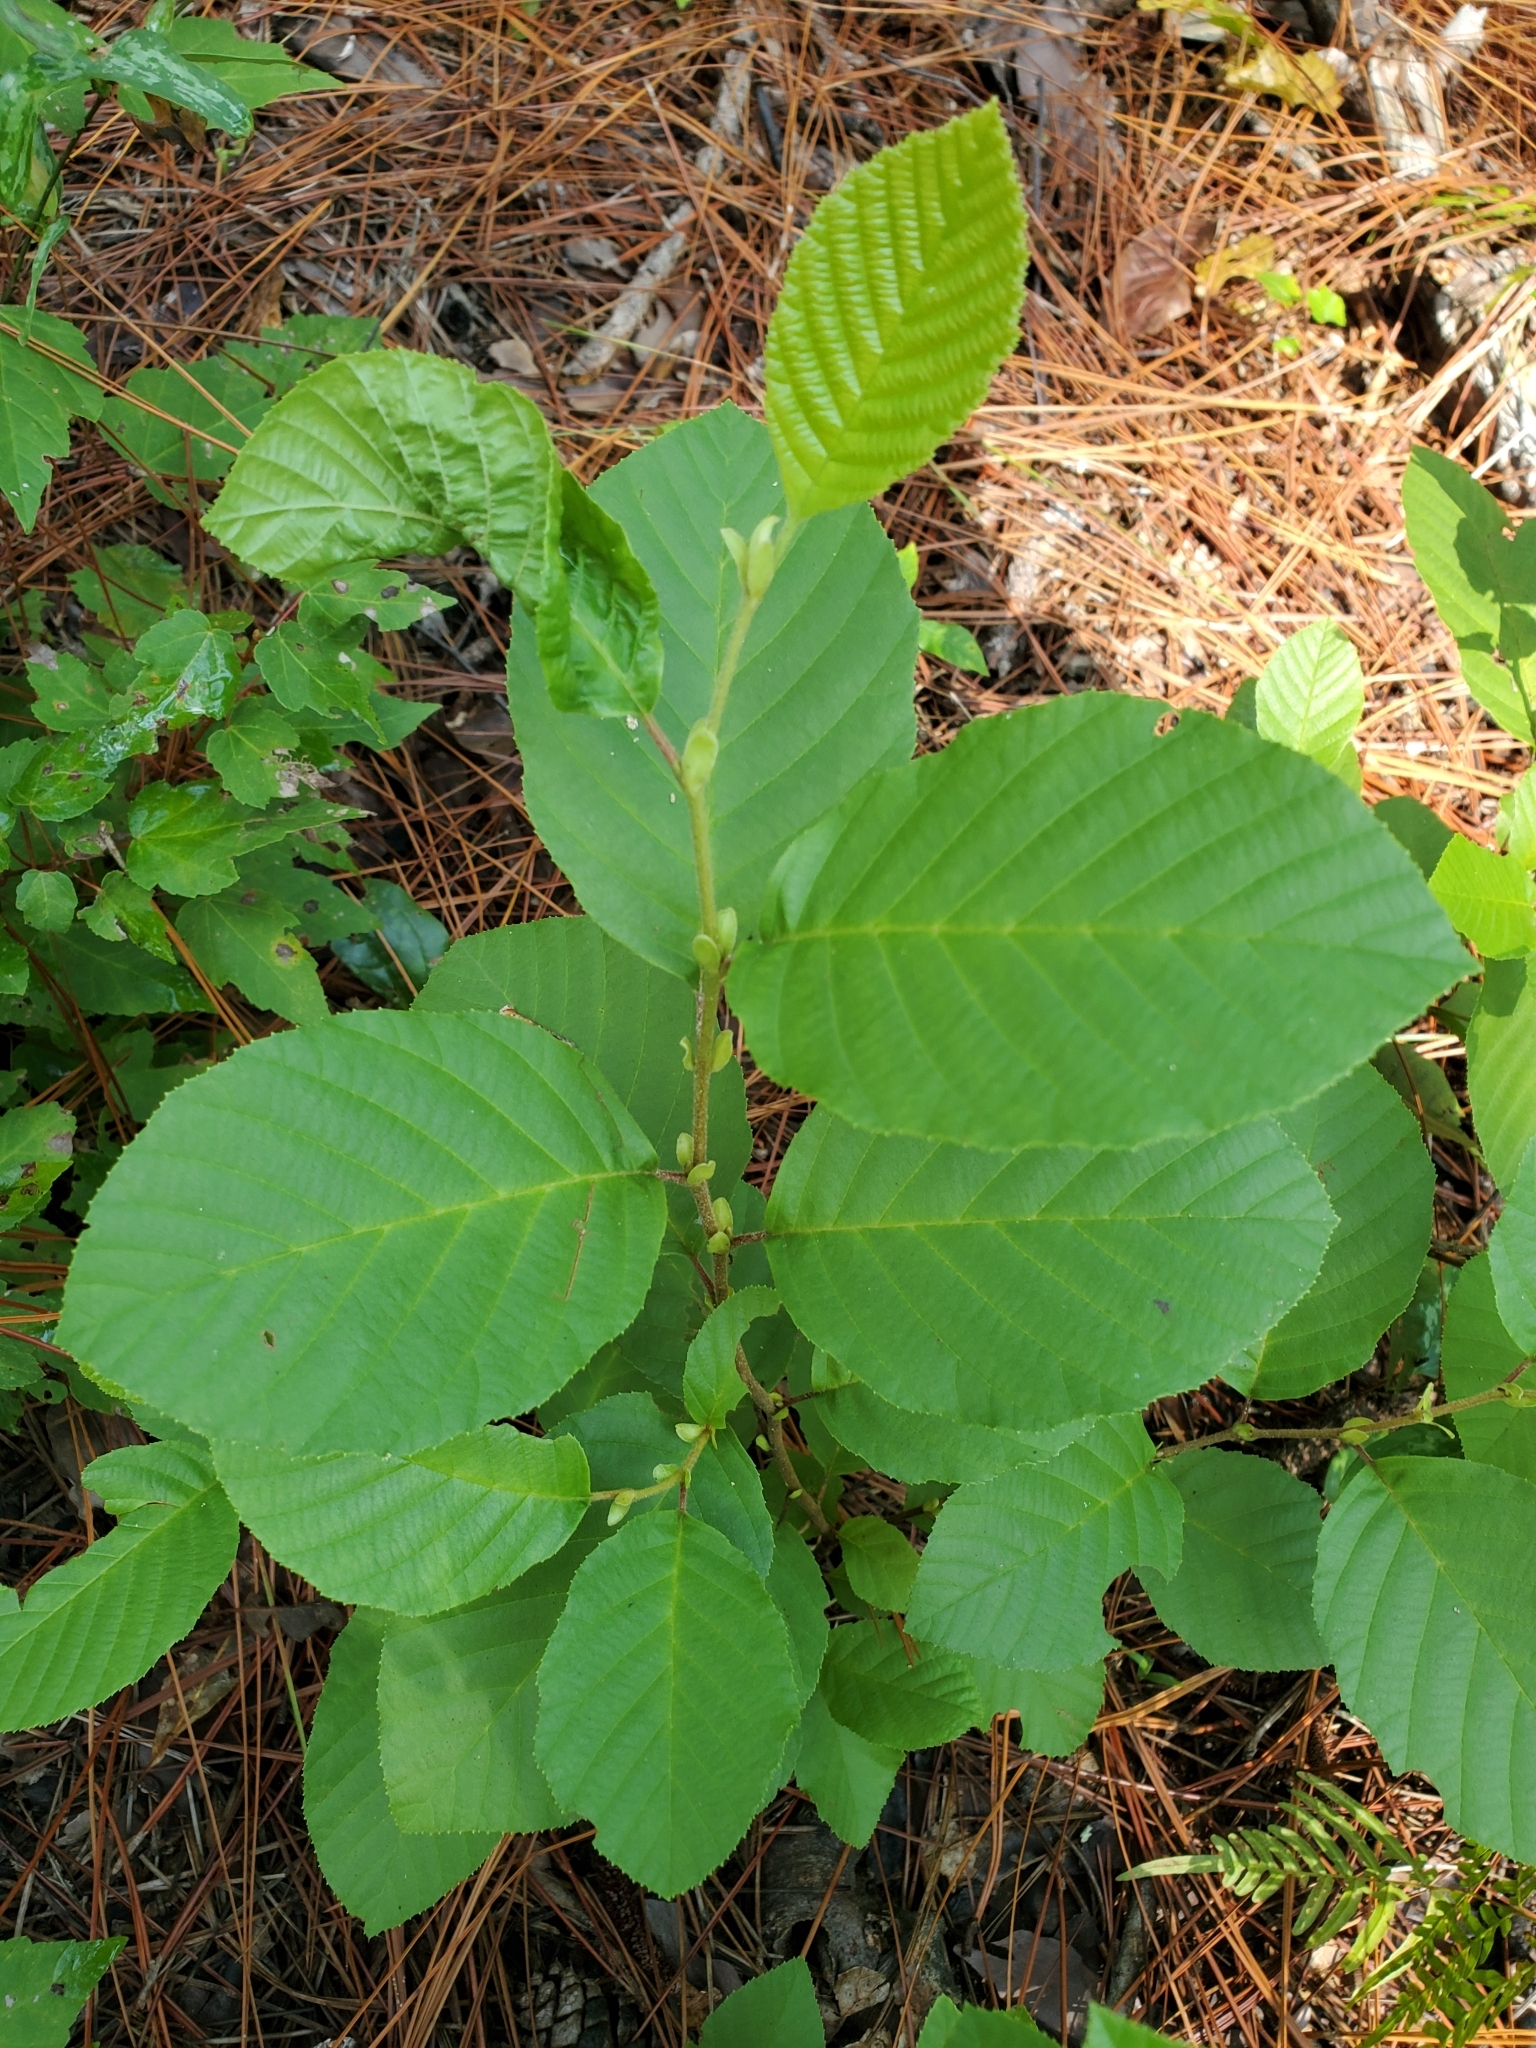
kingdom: Plantae
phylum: Tracheophyta
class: Magnoliopsida
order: Fagales
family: Betulaceae
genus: Alnus
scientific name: Alnus serrulata
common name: Hazel alder
